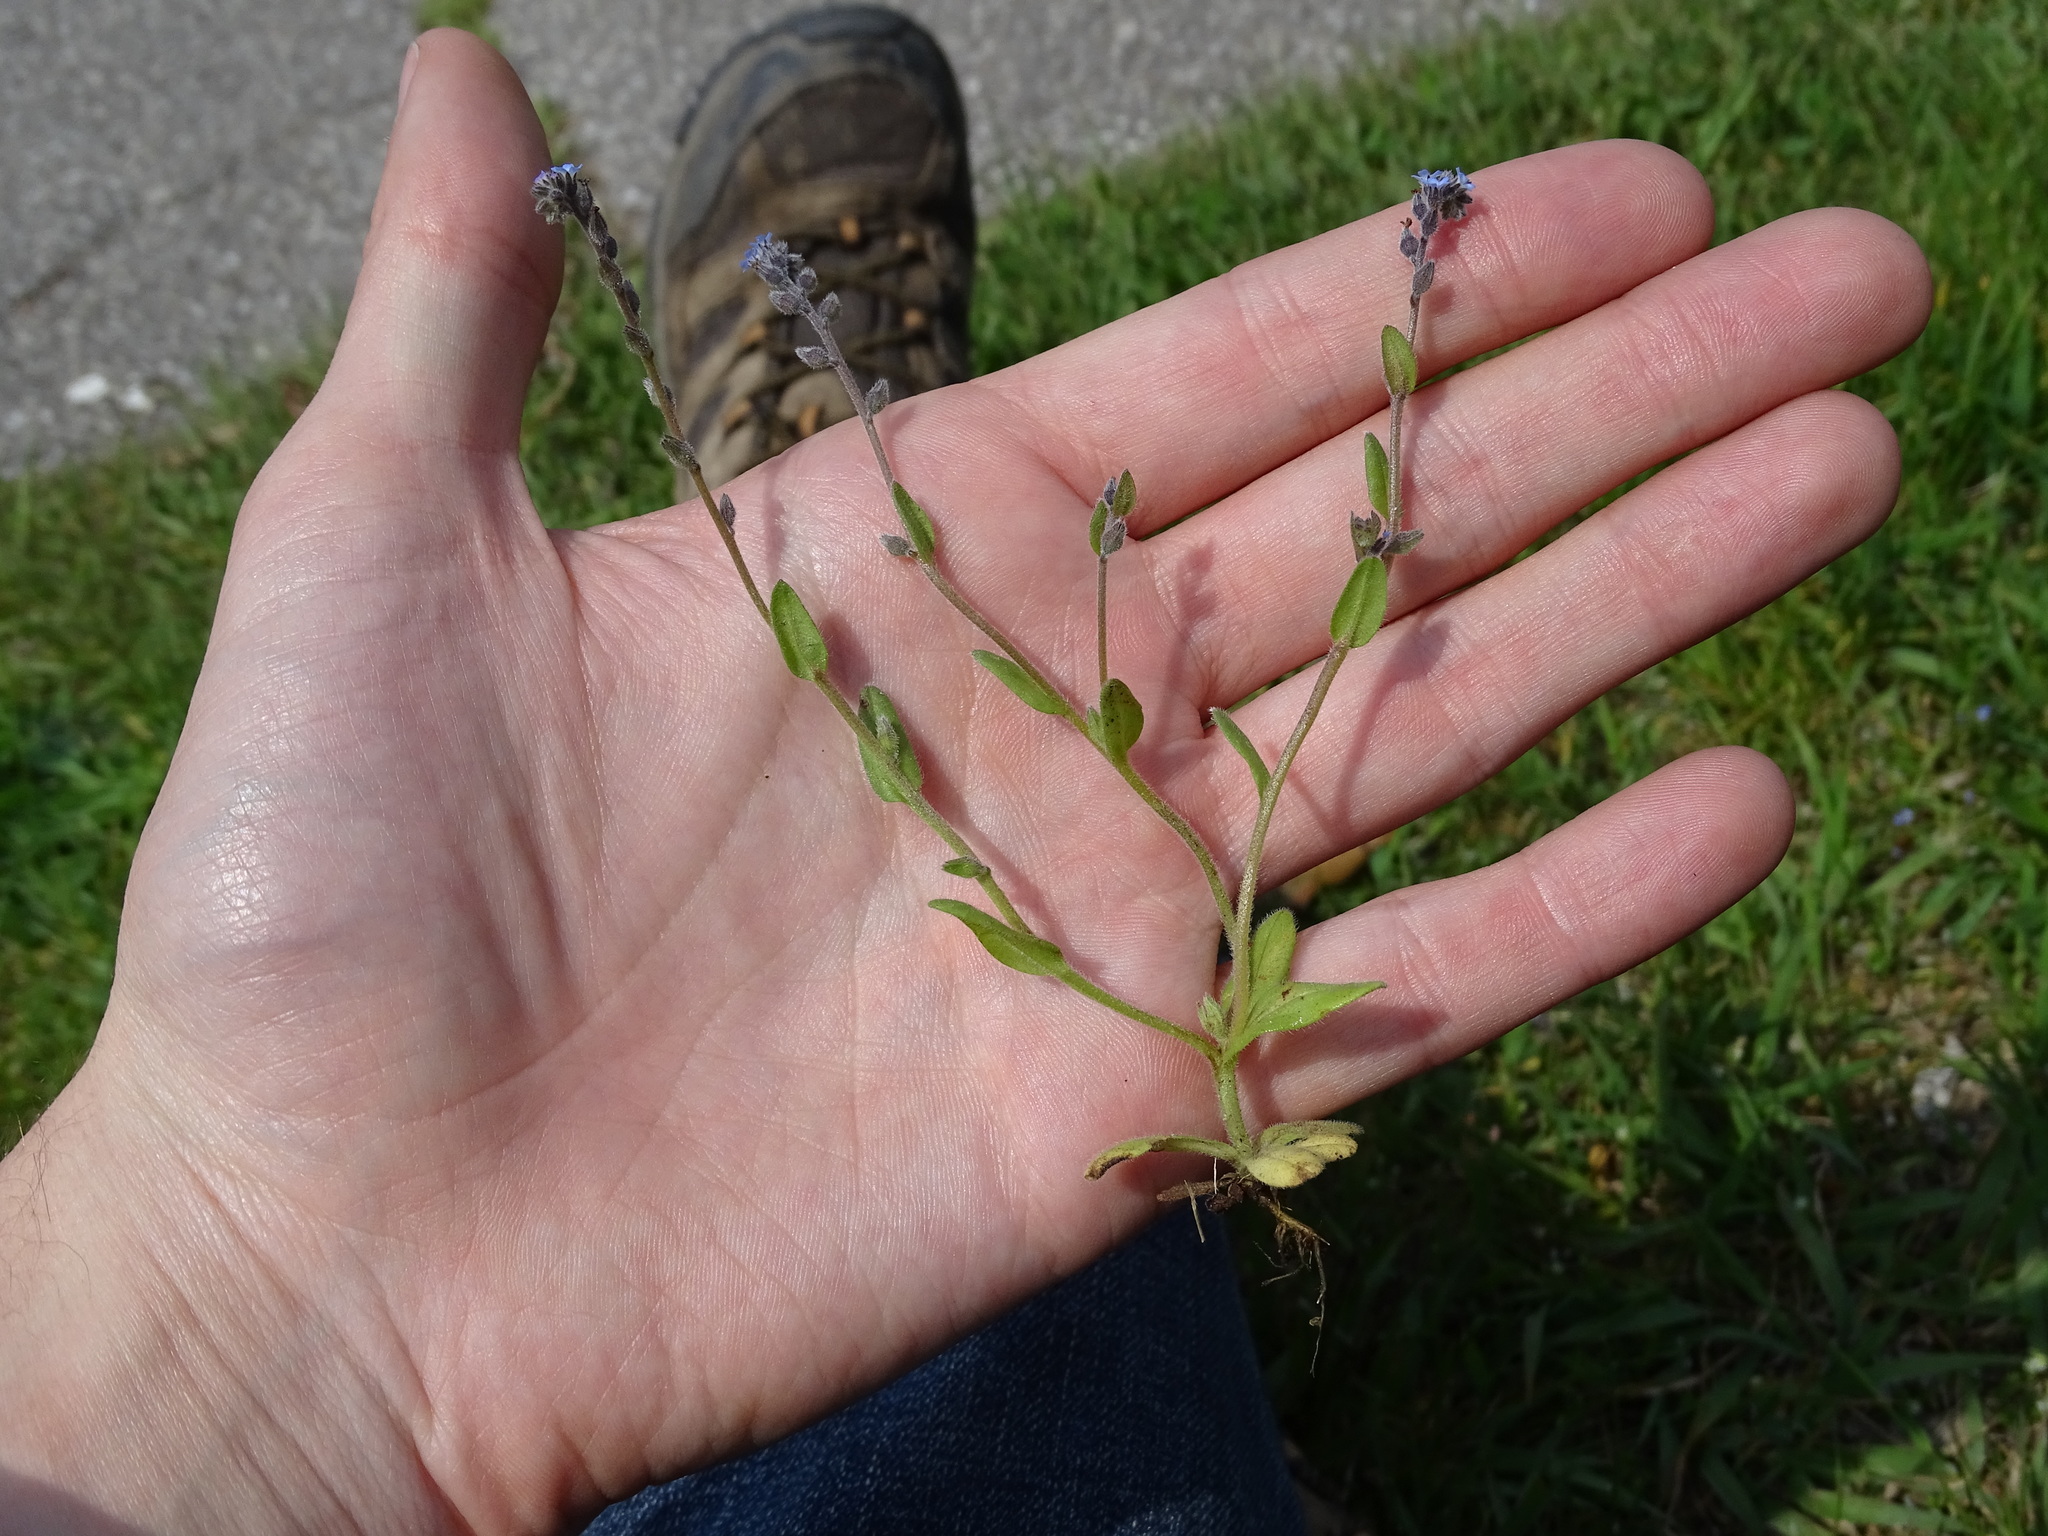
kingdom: Plantae
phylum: Tracheophyta
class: Magnoliopsida
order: Boraginales
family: Boraginaceae
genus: Myosotis
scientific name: Myosotis stricta
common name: Strict forget-me-not
